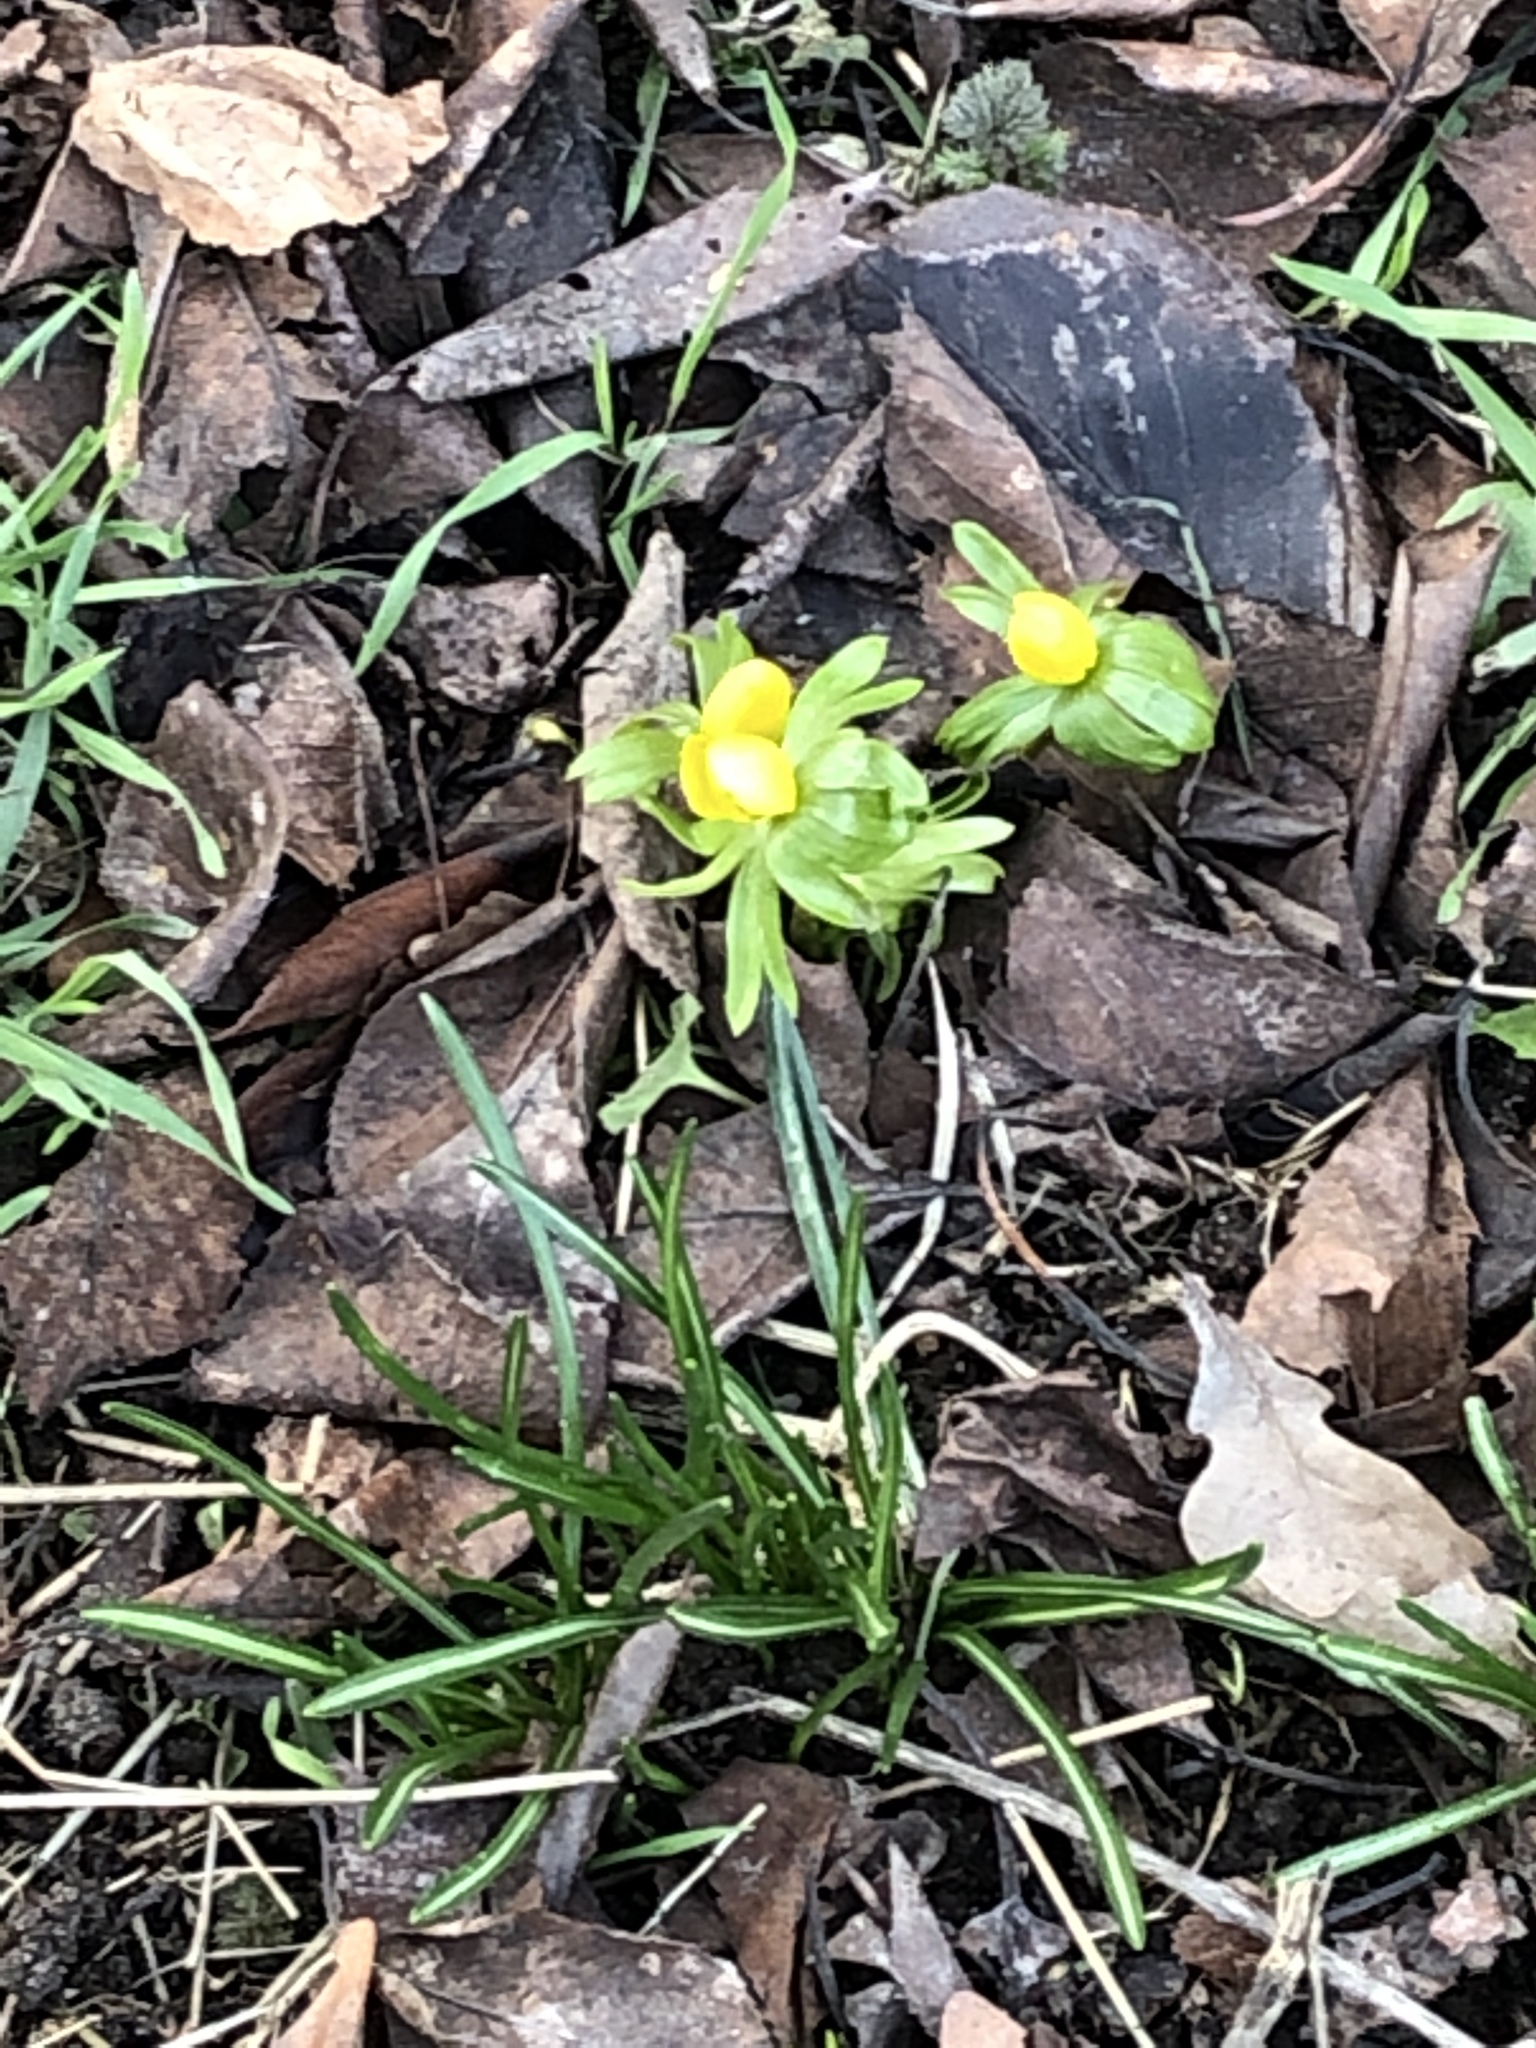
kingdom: Plantae
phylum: Tracheophyta
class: Magnoliopsida
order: Ranunculales
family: Ranunculaceae
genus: Eranthis
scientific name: Eranthis hyemalis
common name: Winter aconite
